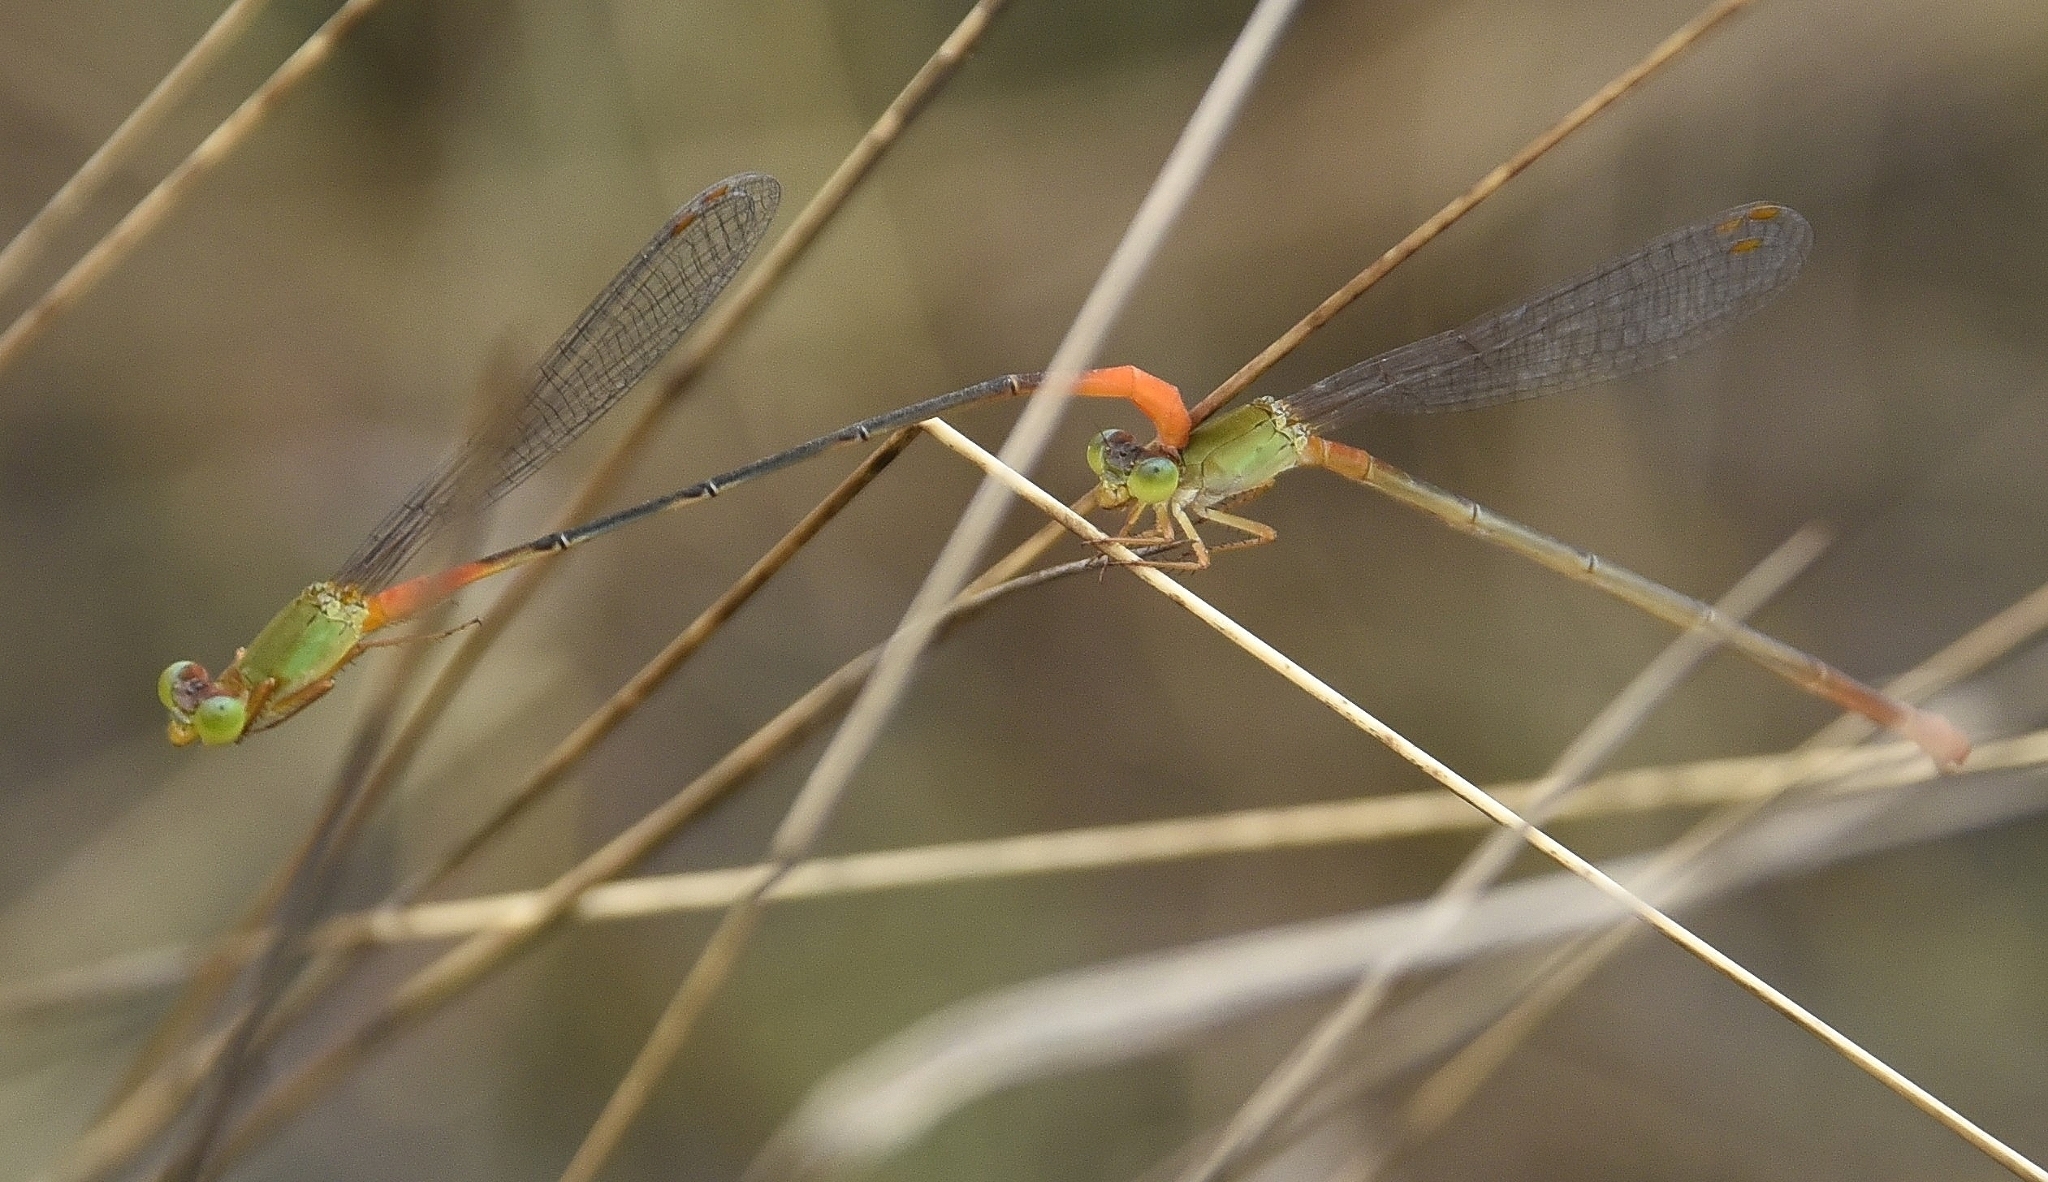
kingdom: Animalia
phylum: Arthropoda
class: Insecta
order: Odonata
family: Coenagrionidae
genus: Ceriagrion
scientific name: Ceriagrion cerinorubellum
